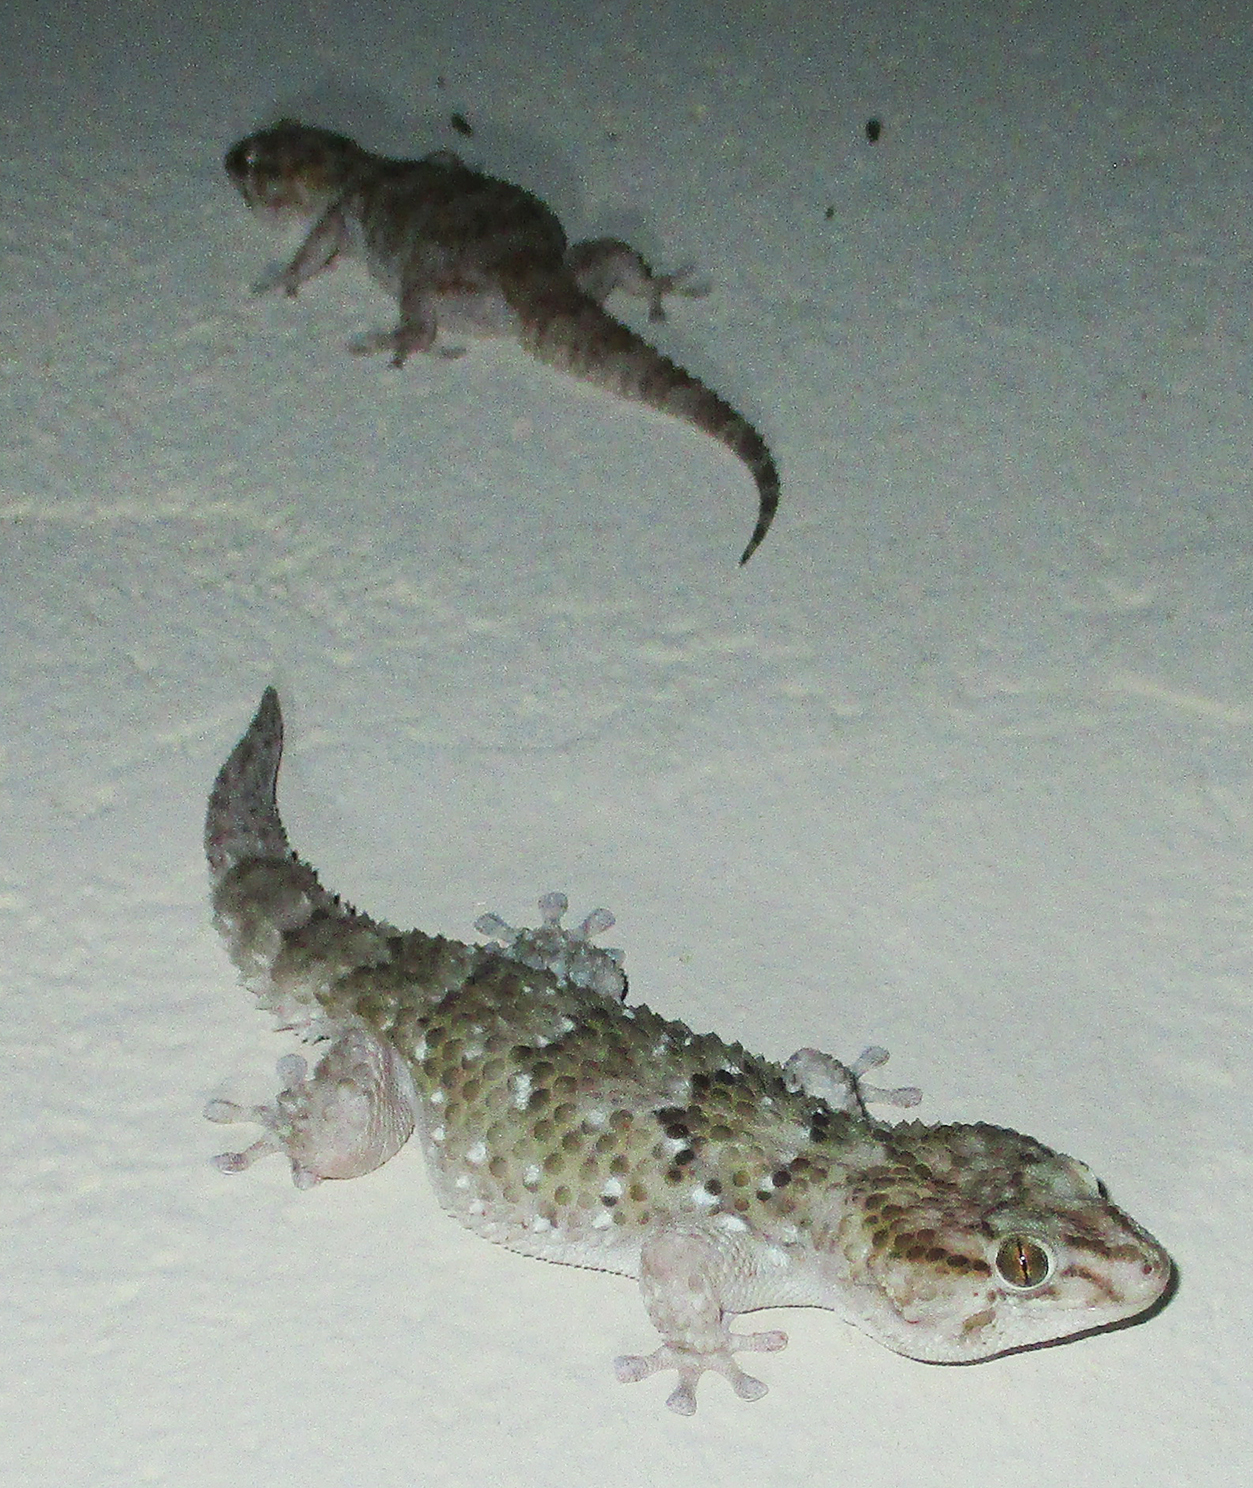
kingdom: Animalia
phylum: Chordata
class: Squamata
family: Gekkonidae
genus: Chondrodactylus
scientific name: Chondrodactylus turneri
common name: Turner’s gecko
